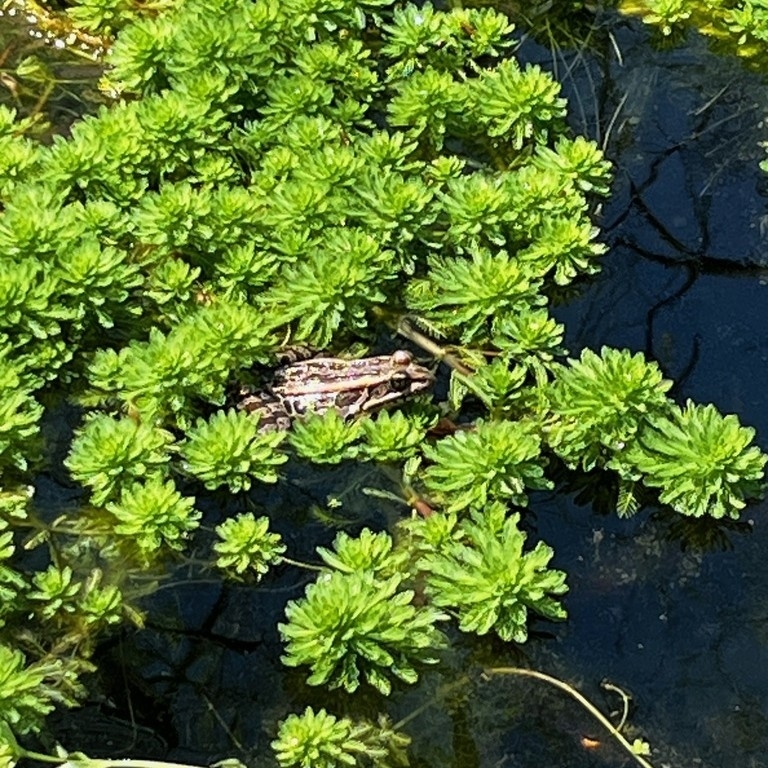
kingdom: Animalia
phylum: Chordata
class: Amphibia
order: Anura
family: Ranidae
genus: Lithobates
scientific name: Lithobates palustris
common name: Pickerel frog
